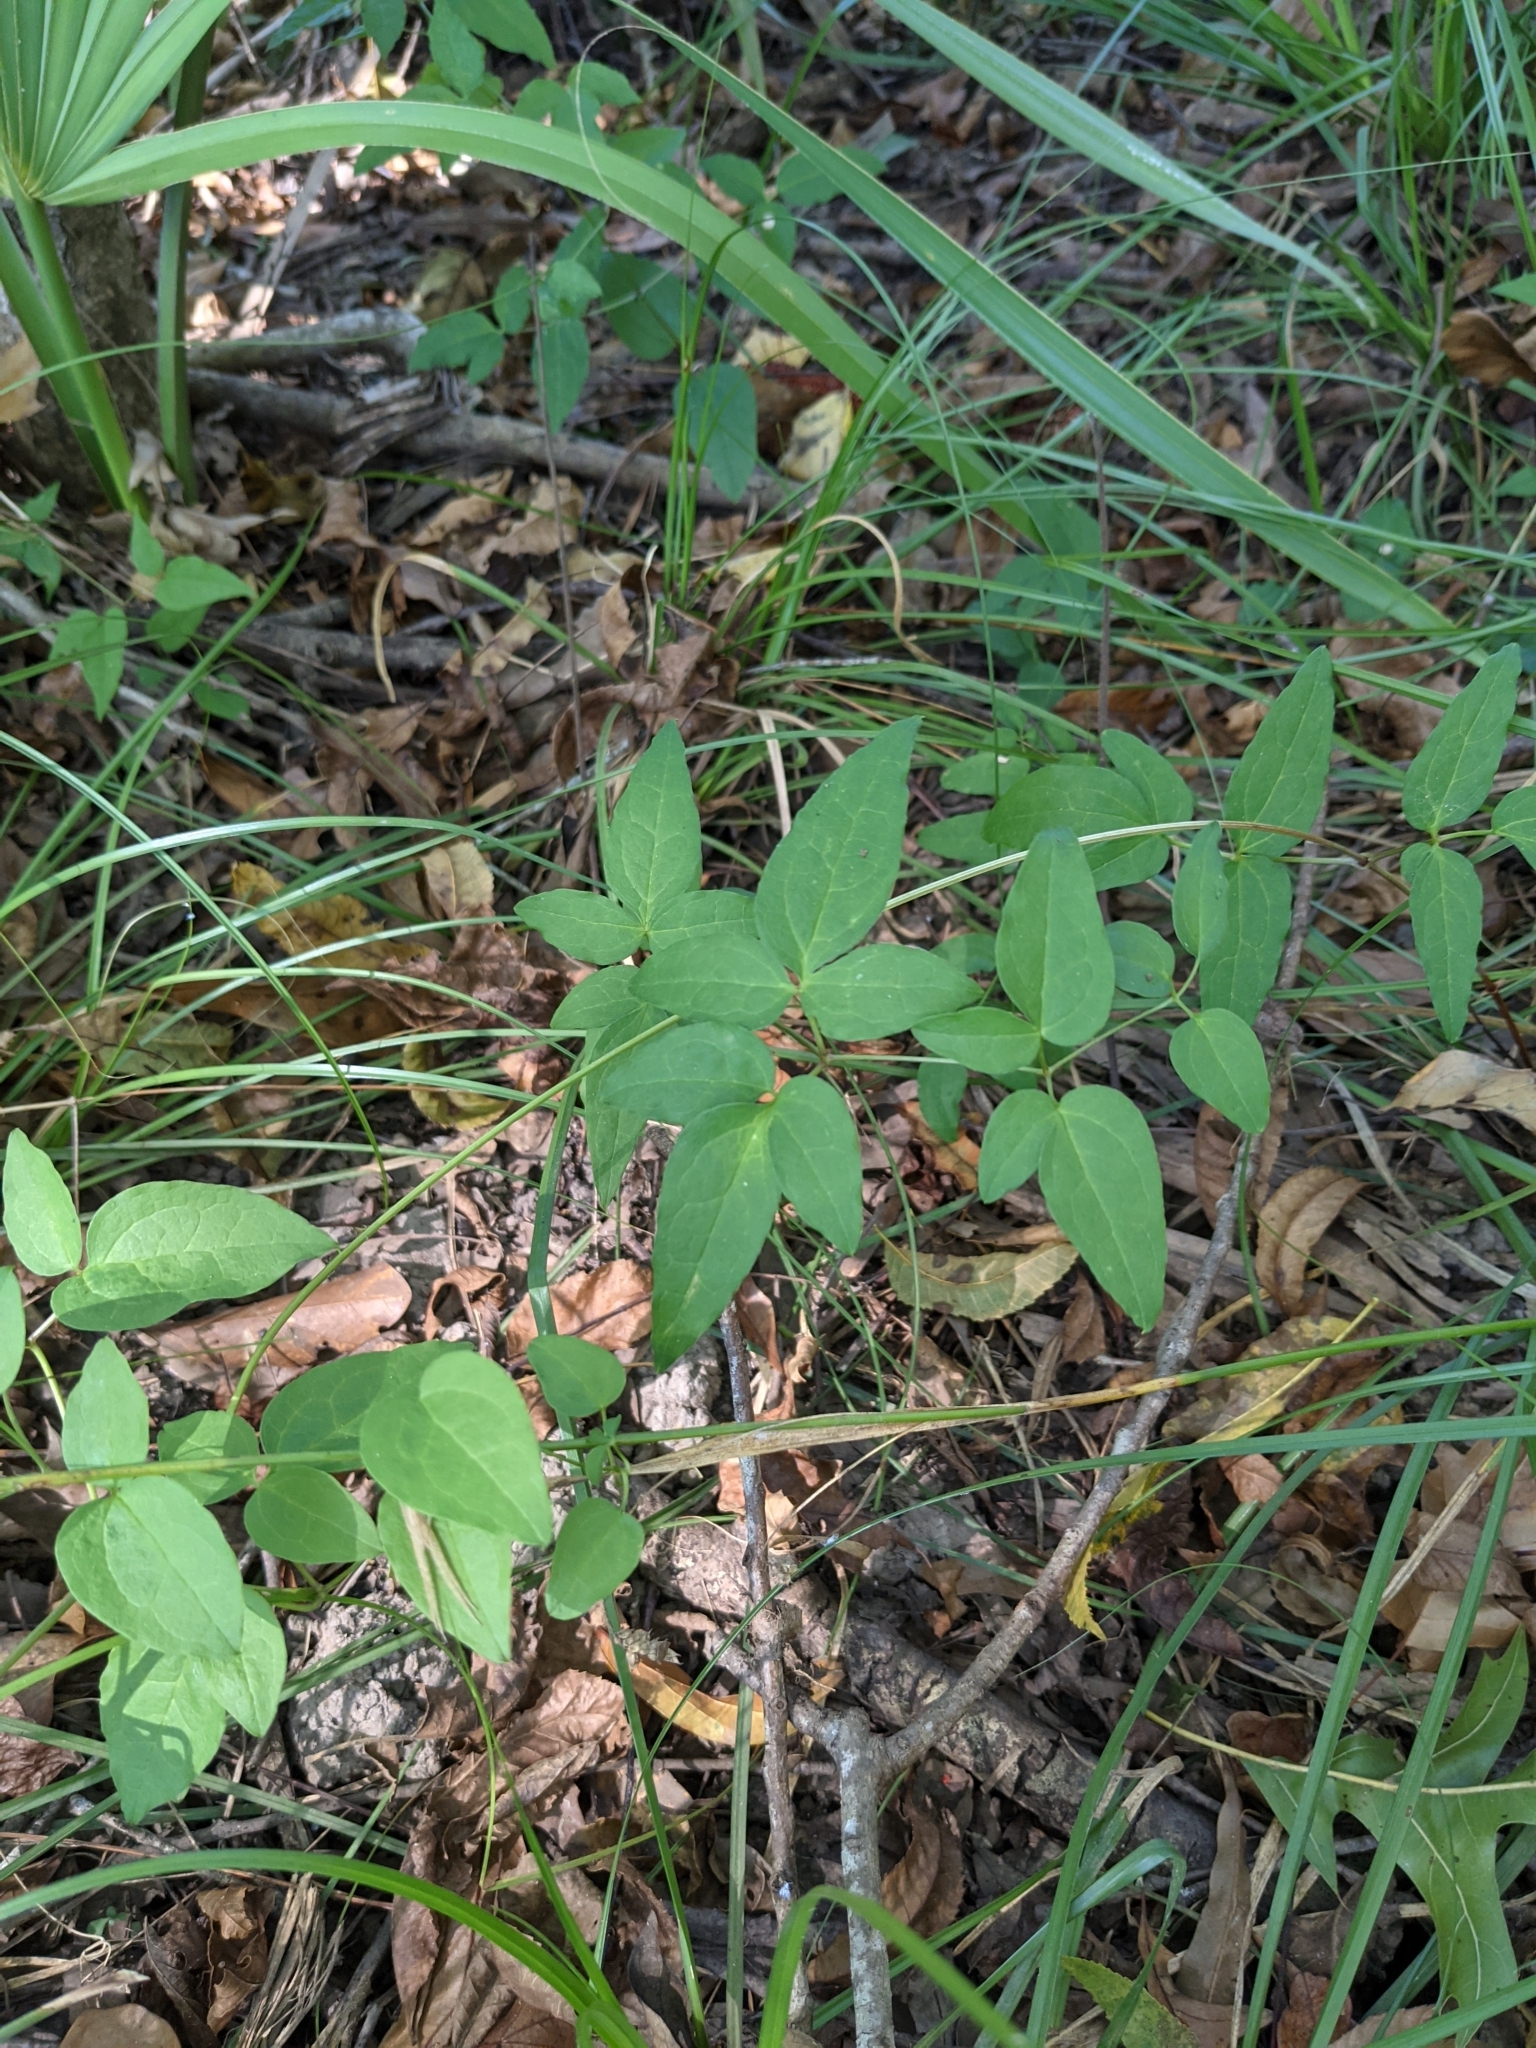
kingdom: Plantae
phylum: Tracheophyta
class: Magnoliopsida
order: Ranunculales
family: Ranunculaceae
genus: Clematis
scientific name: Clematis crispa
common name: Curly clematis
